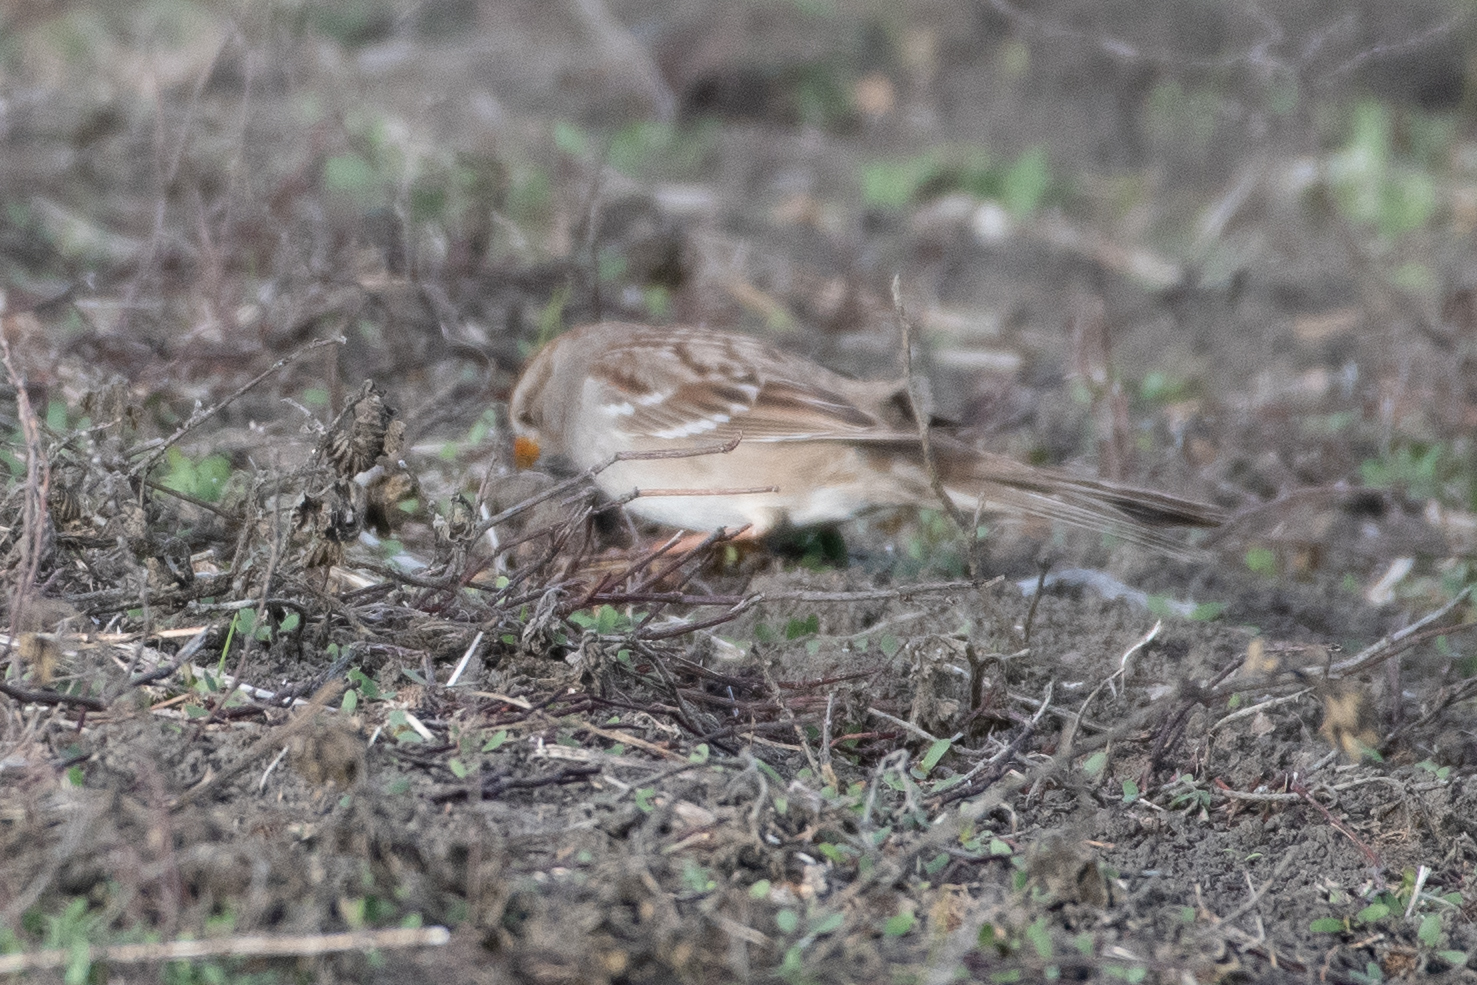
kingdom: Animalia
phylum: Chordata
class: Aves
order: Passeriformes
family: Passerellidae
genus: Zonotrichia
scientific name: Zonotrichia leucophrys
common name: White-crowned sparrow
